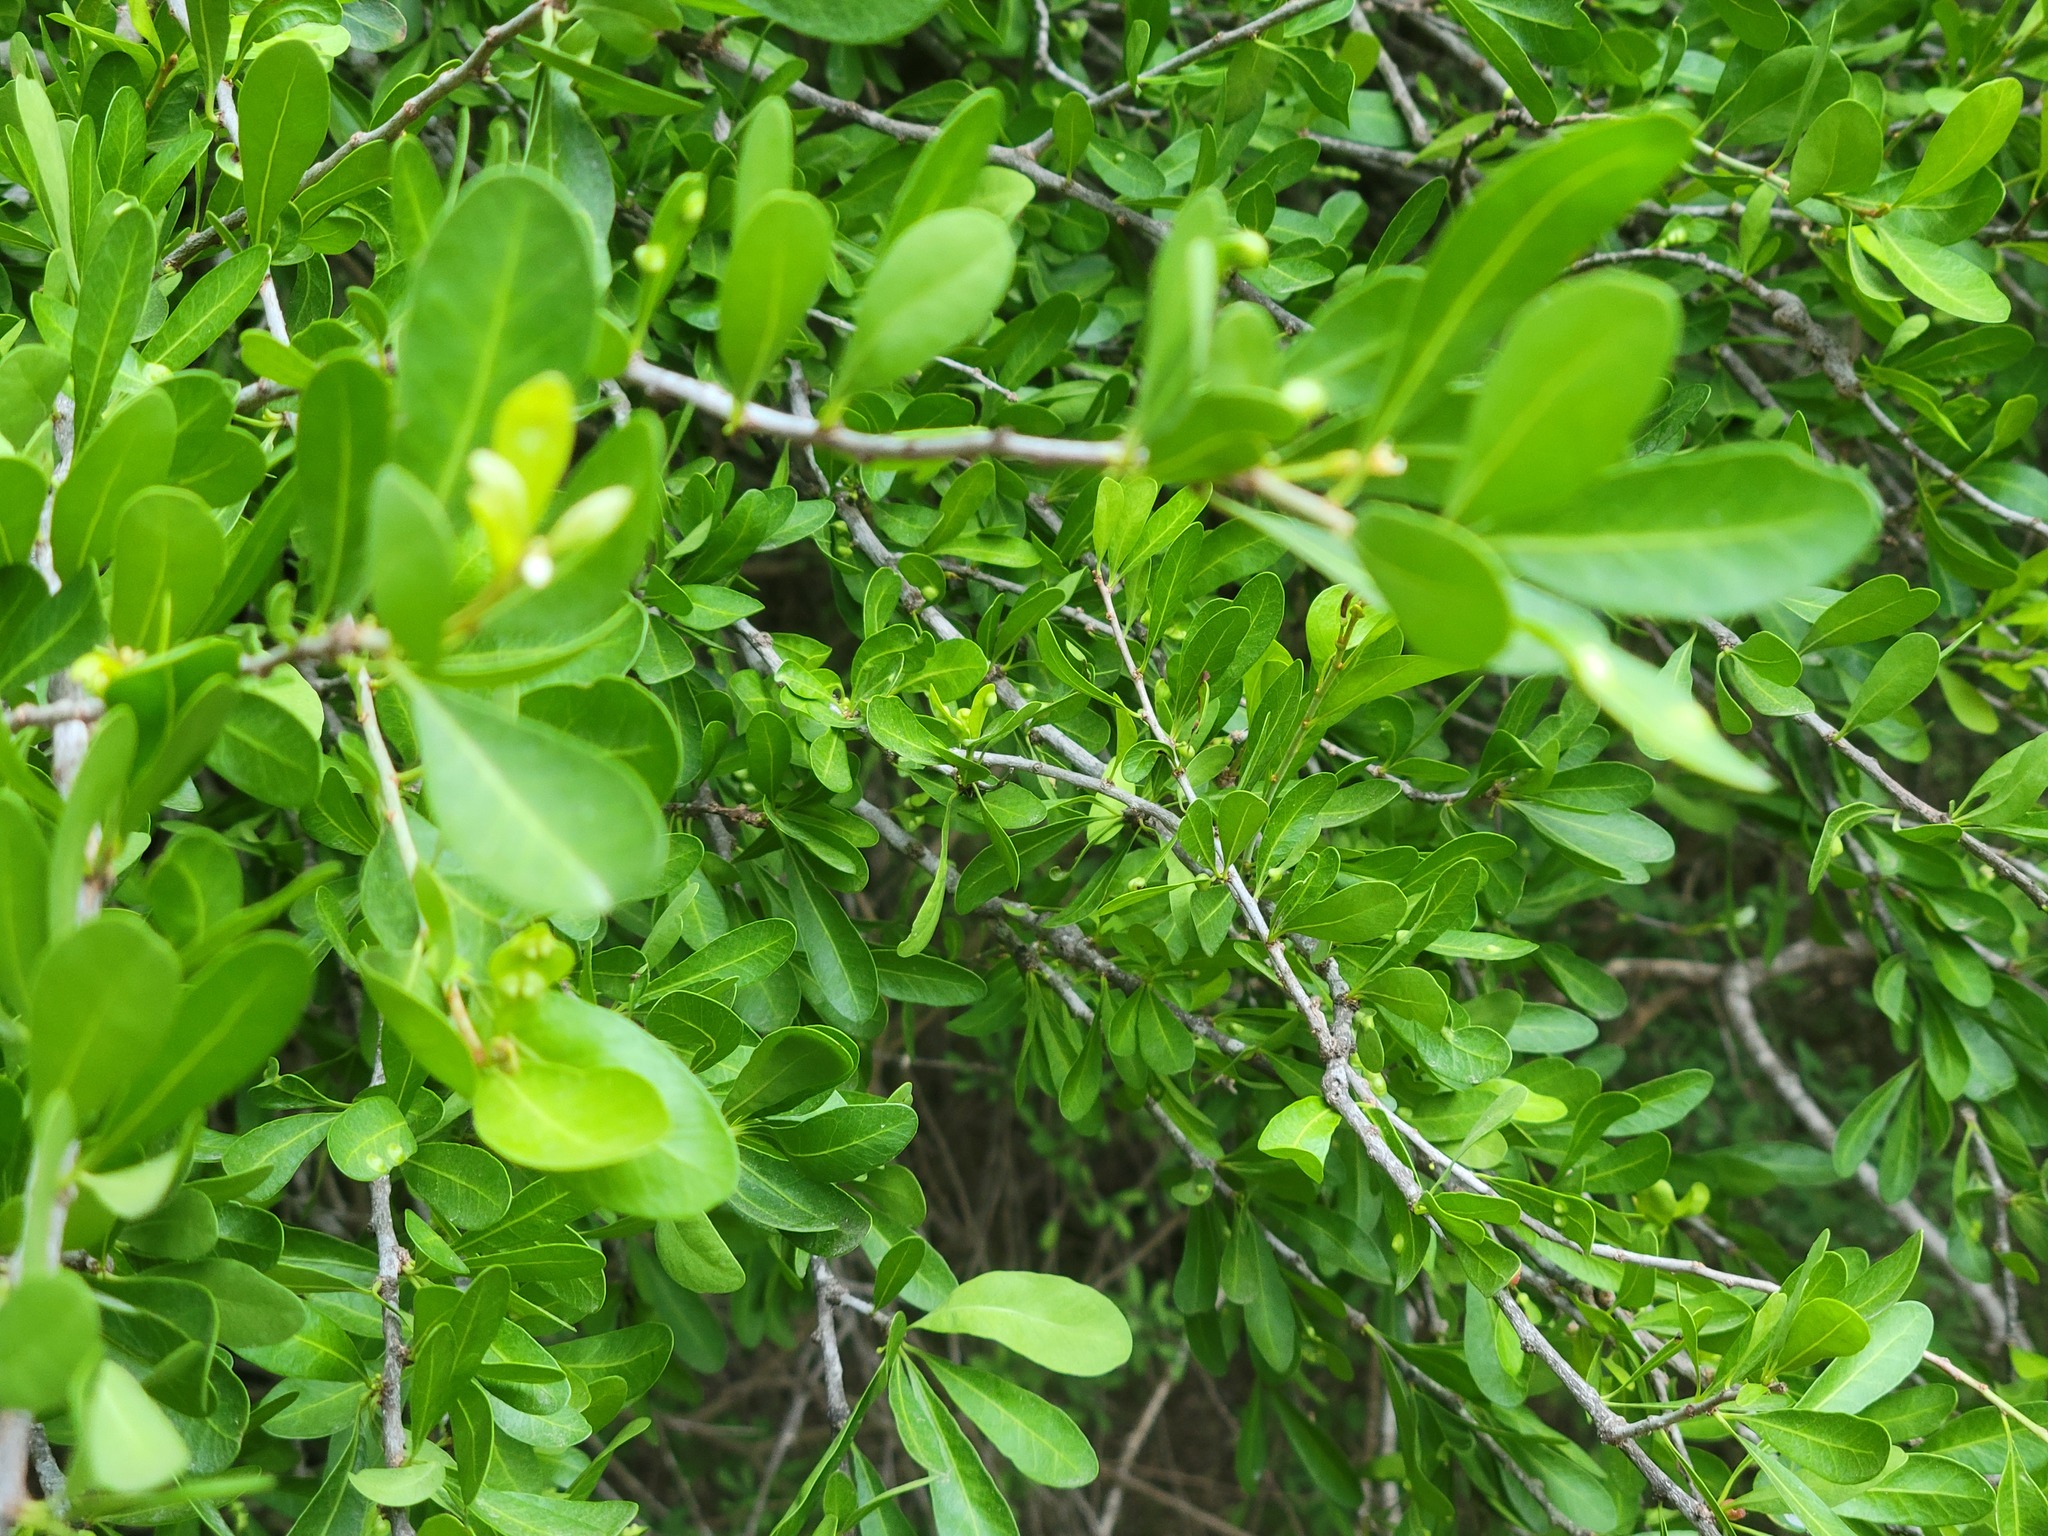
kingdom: Plantae
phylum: Tracheophyta
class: Magnoliopsida
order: Ericales
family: Sapotaceae
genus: Sideroxylon
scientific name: Sideroxylon celastrinum
